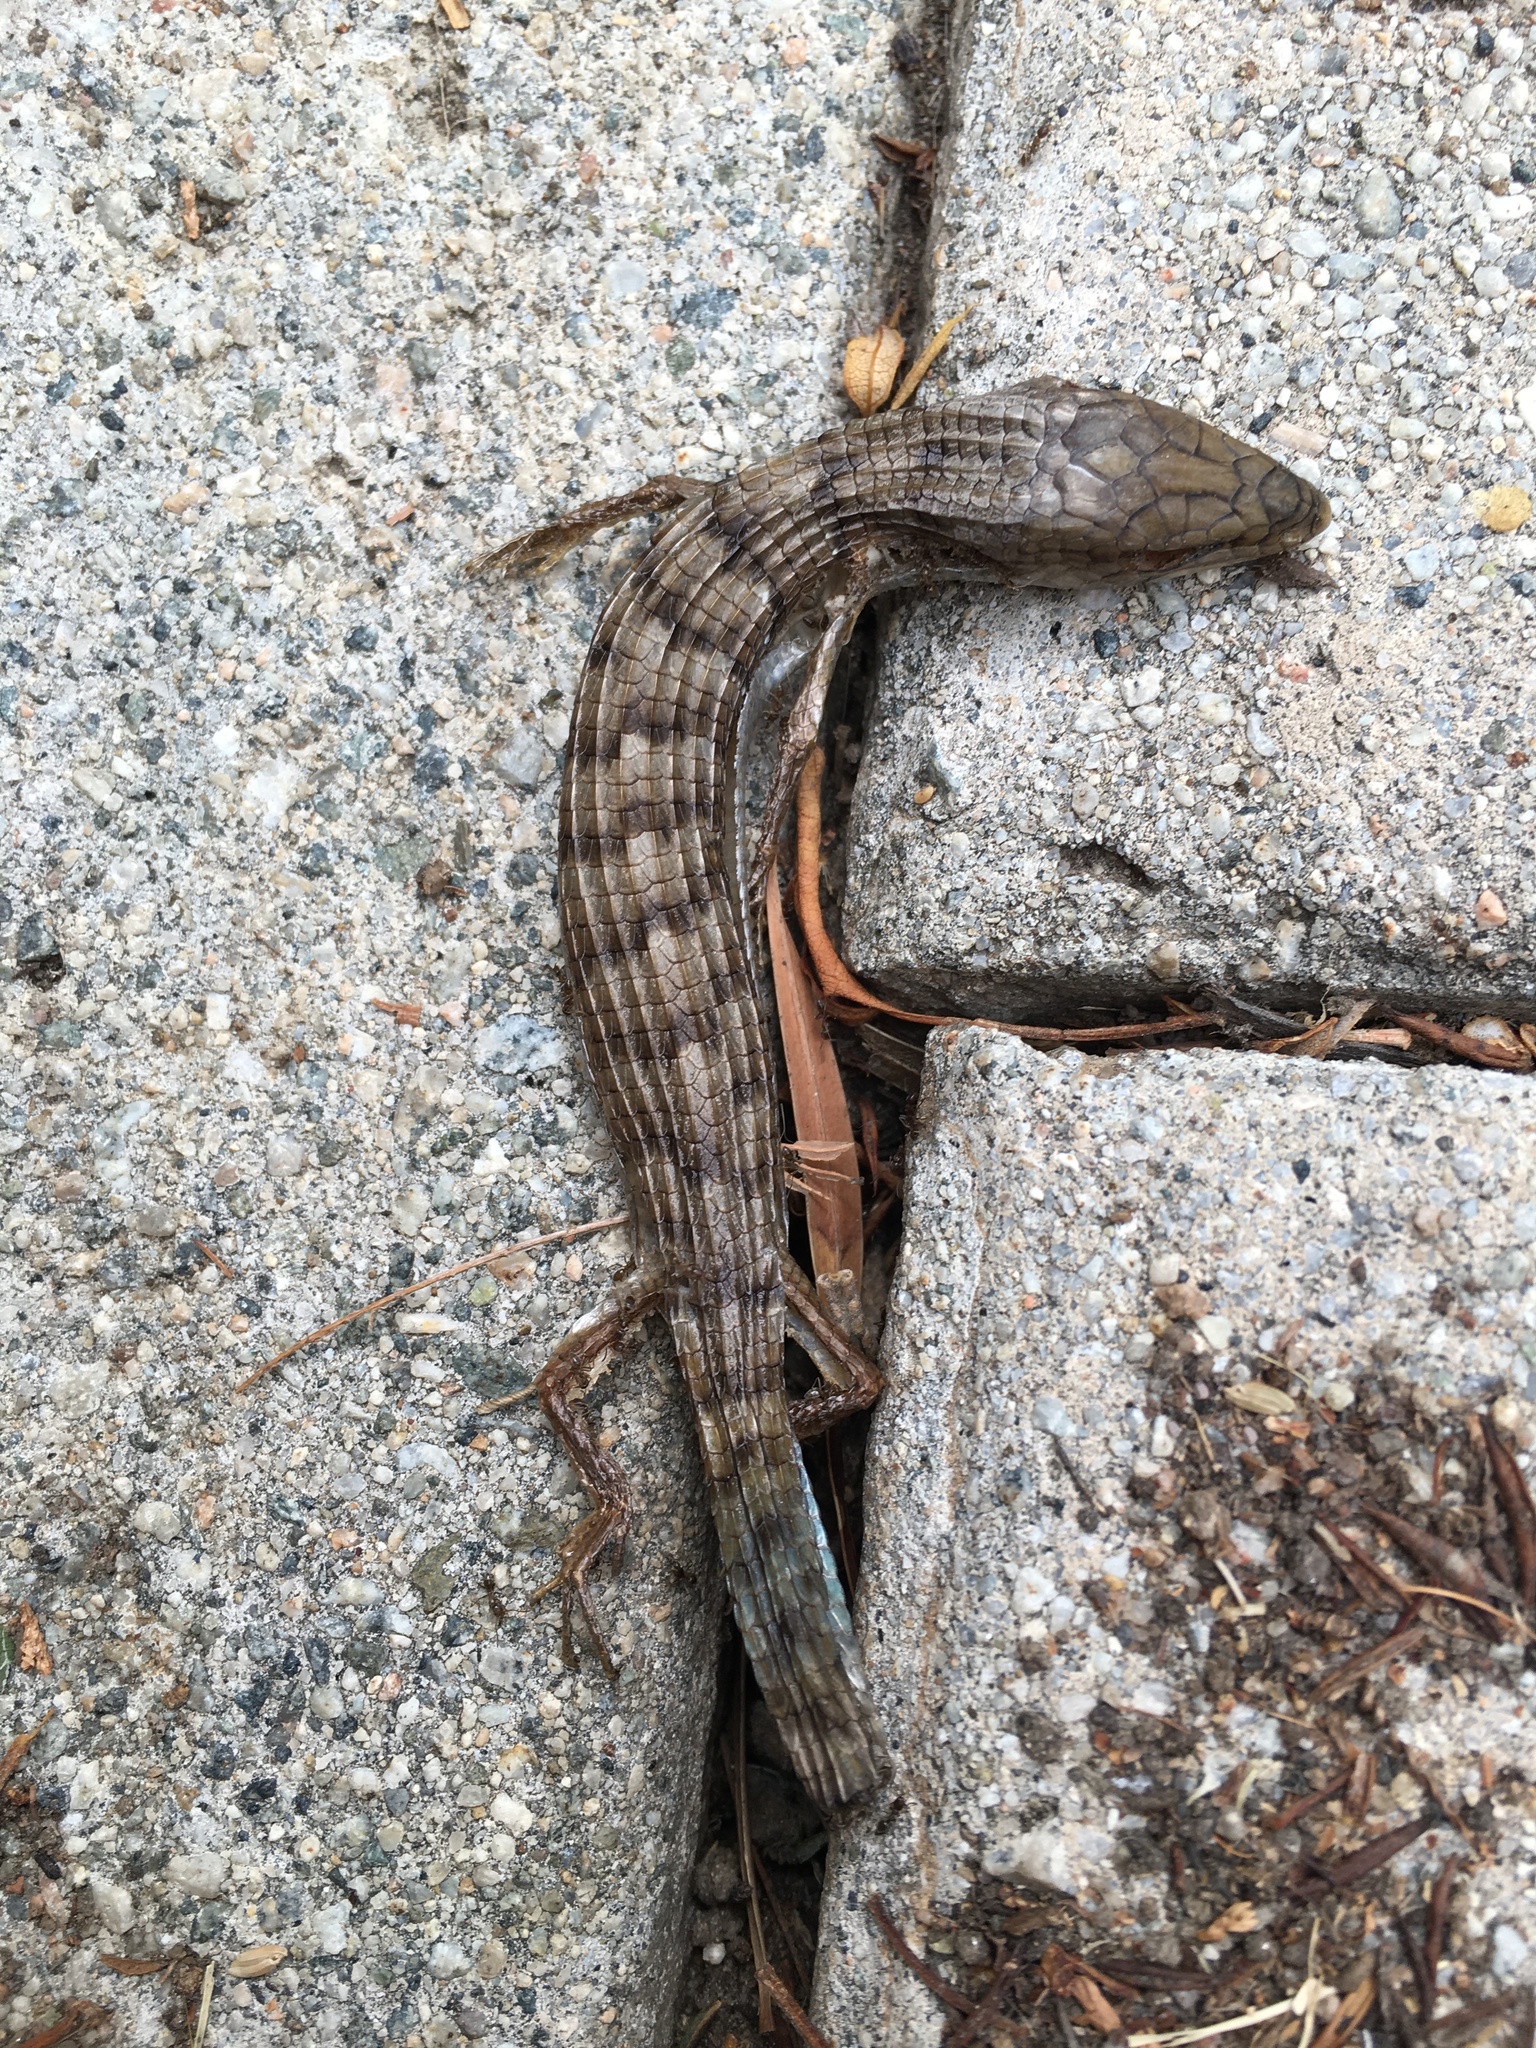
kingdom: Animalia
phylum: Chordata
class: Squamata
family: Anguidae
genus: Elgaria
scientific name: Elgaria multicarinata
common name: Southern alligator lizard
